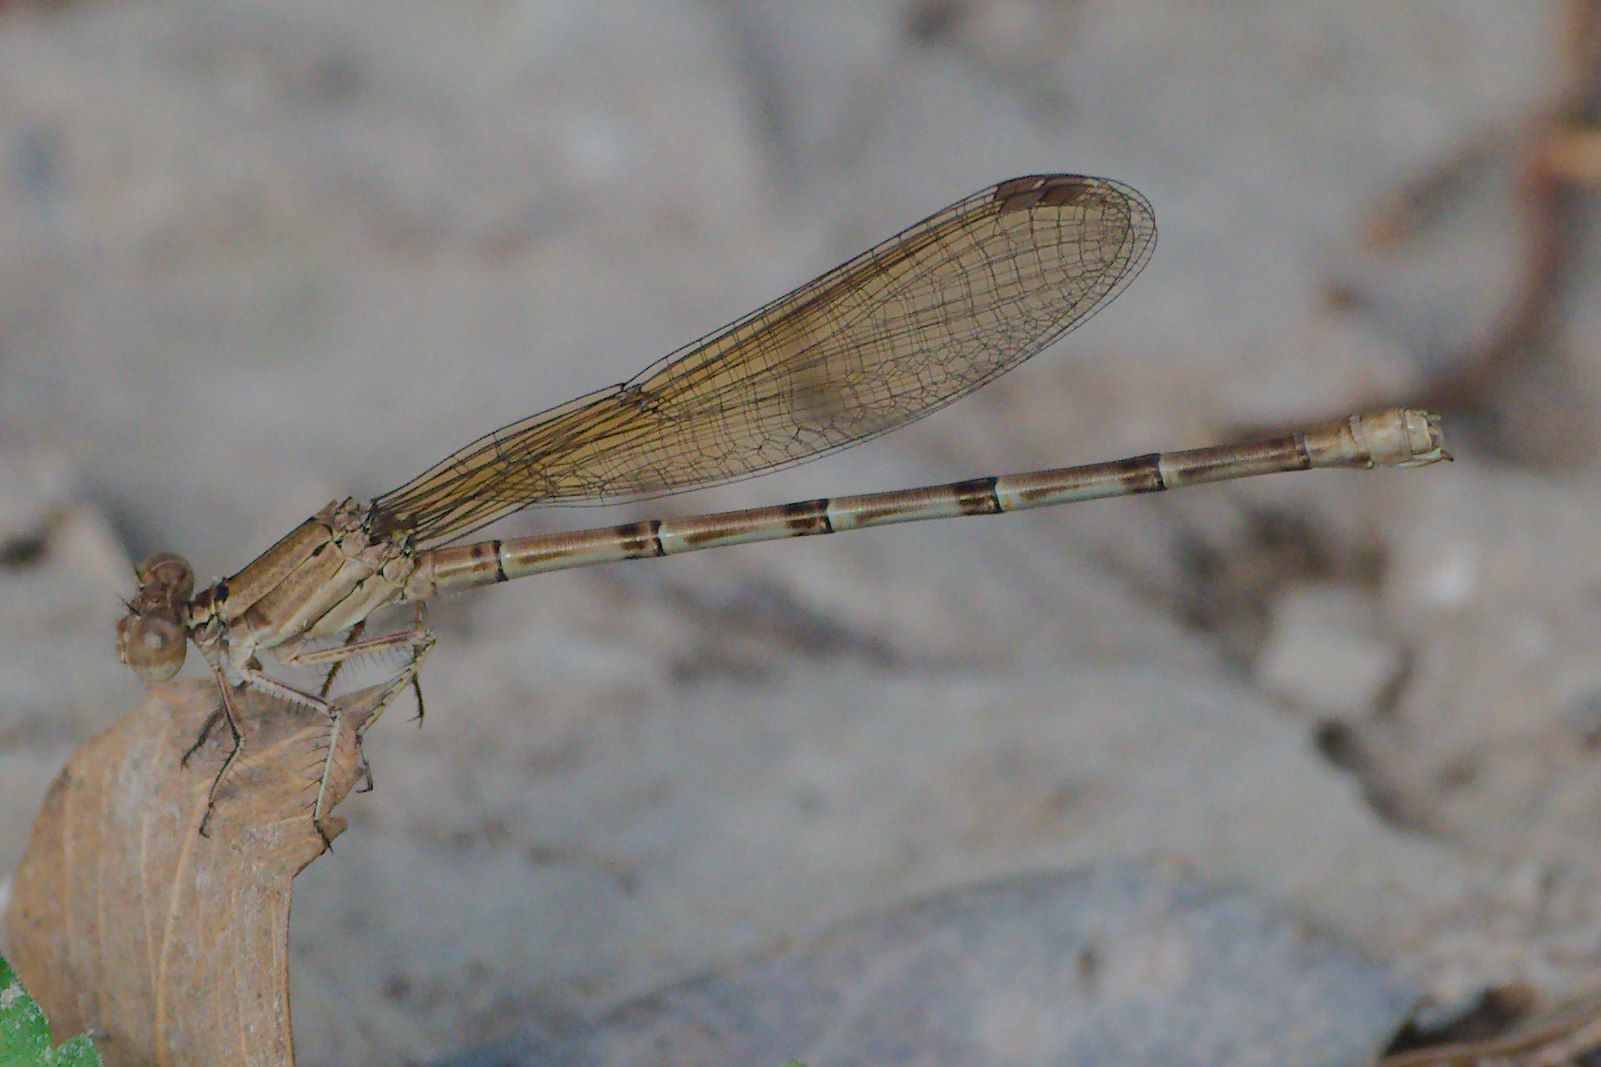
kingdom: Animalia
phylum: Arthropoda
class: Insecta
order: Odonata
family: Coenagrionidae
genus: Argia
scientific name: Argia sedula
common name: Blue-ringed dancer
